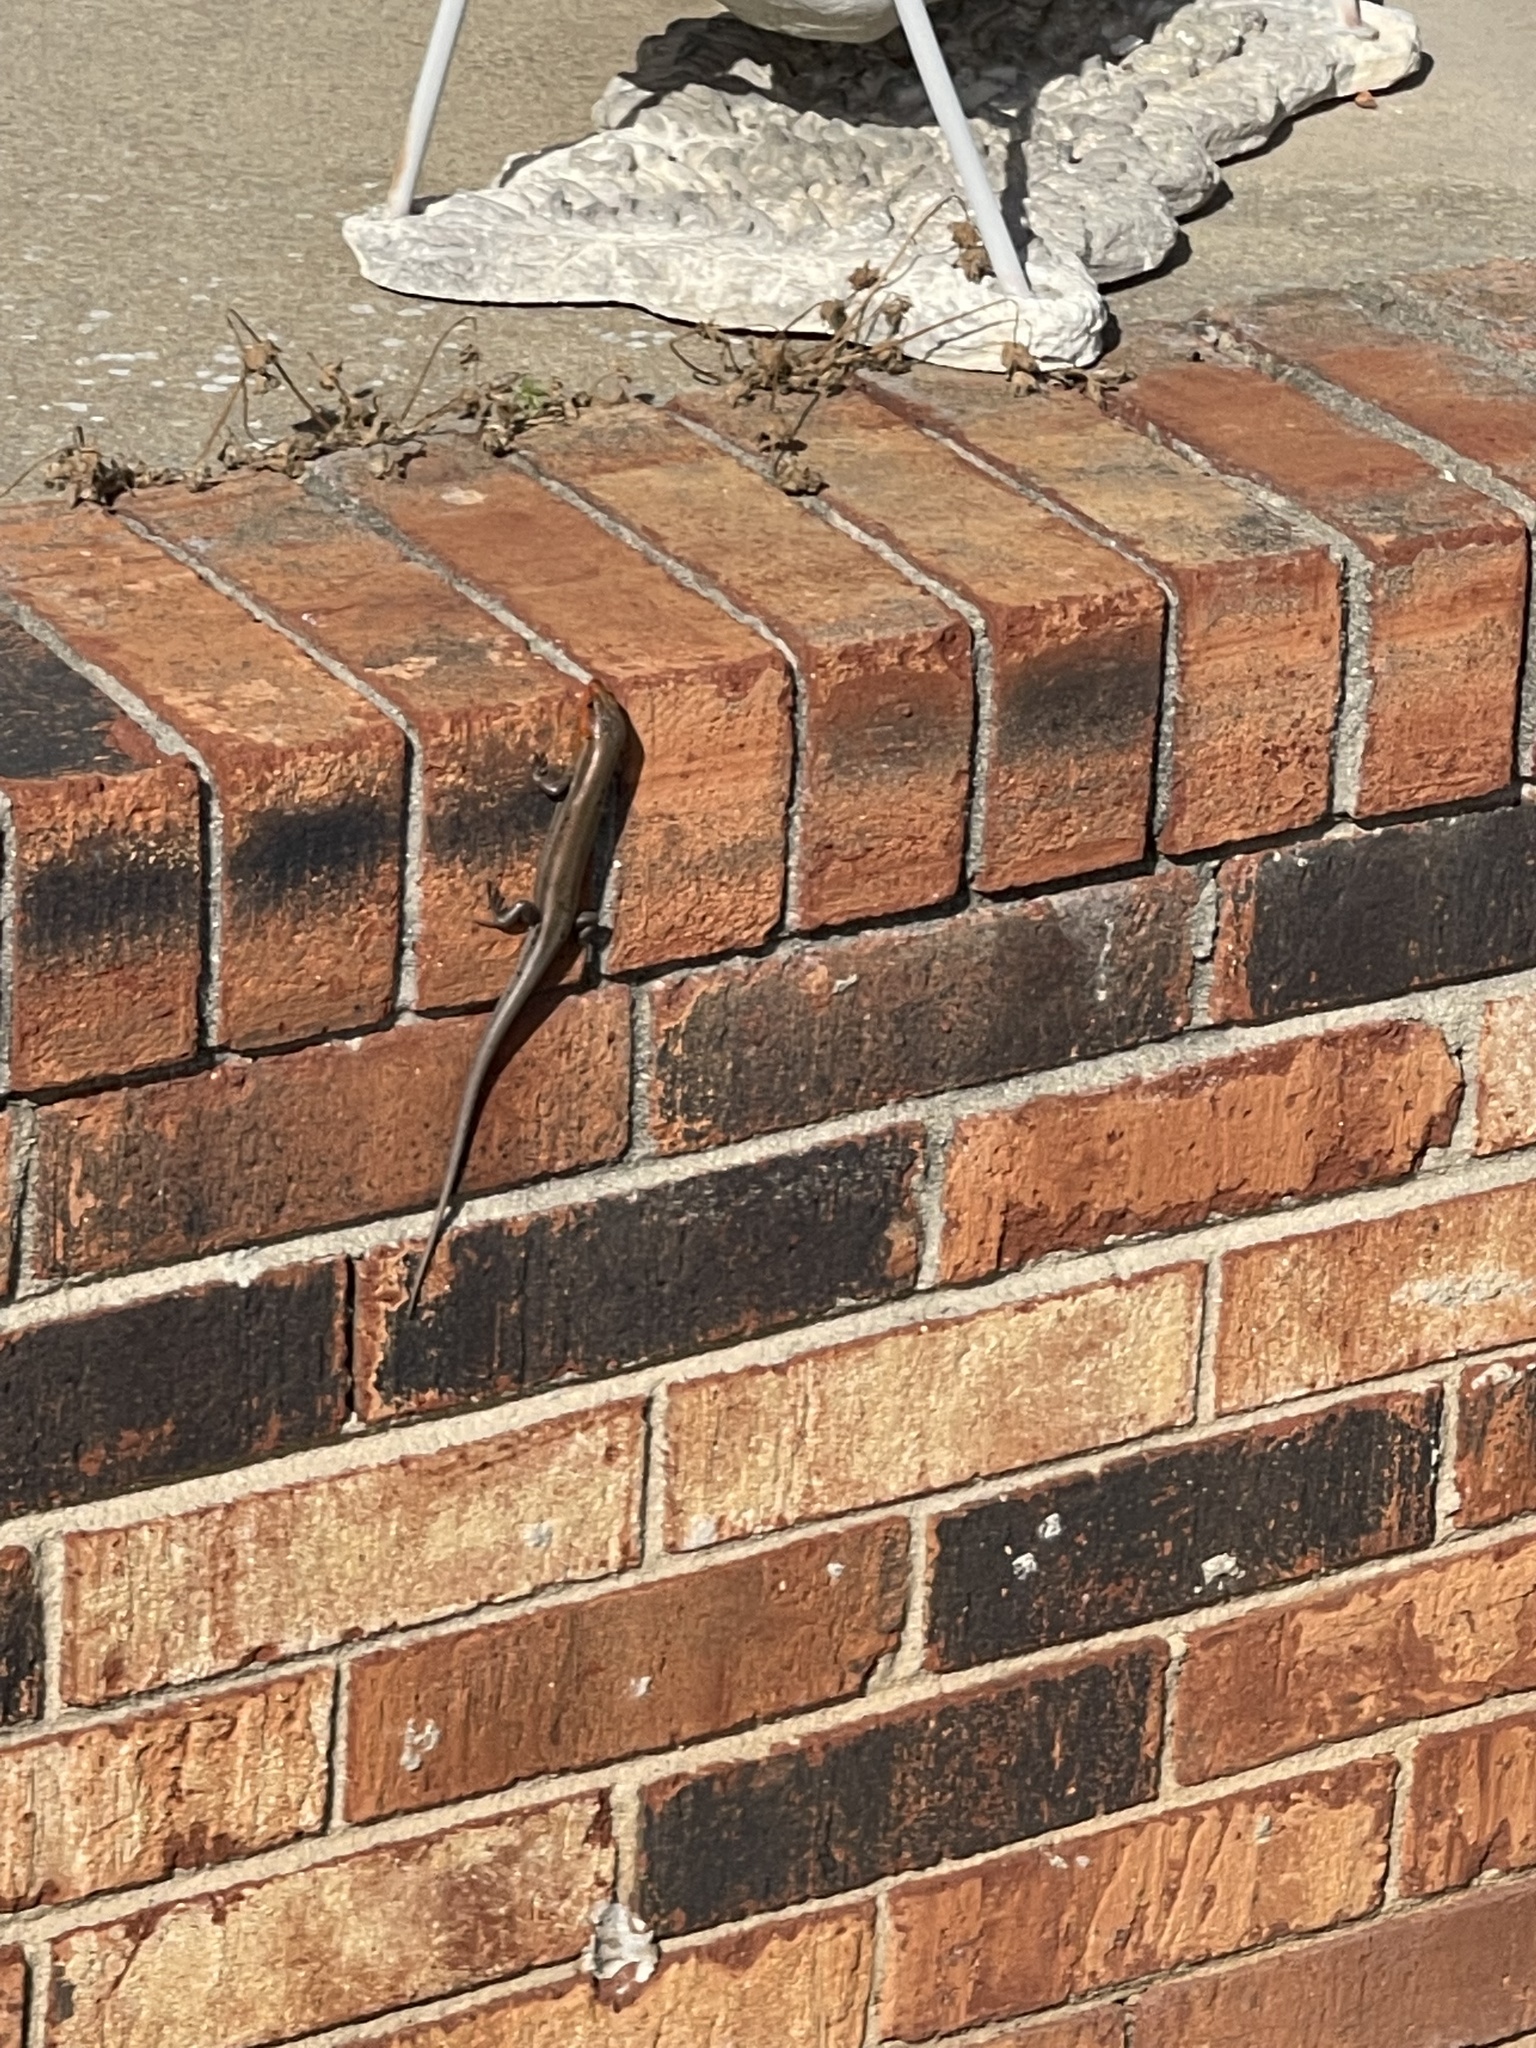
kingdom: Animalia
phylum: Chordata
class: Squamata
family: Scincidae
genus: Plestiodon
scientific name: Plestiodon fasciatus
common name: Five-lined skink
